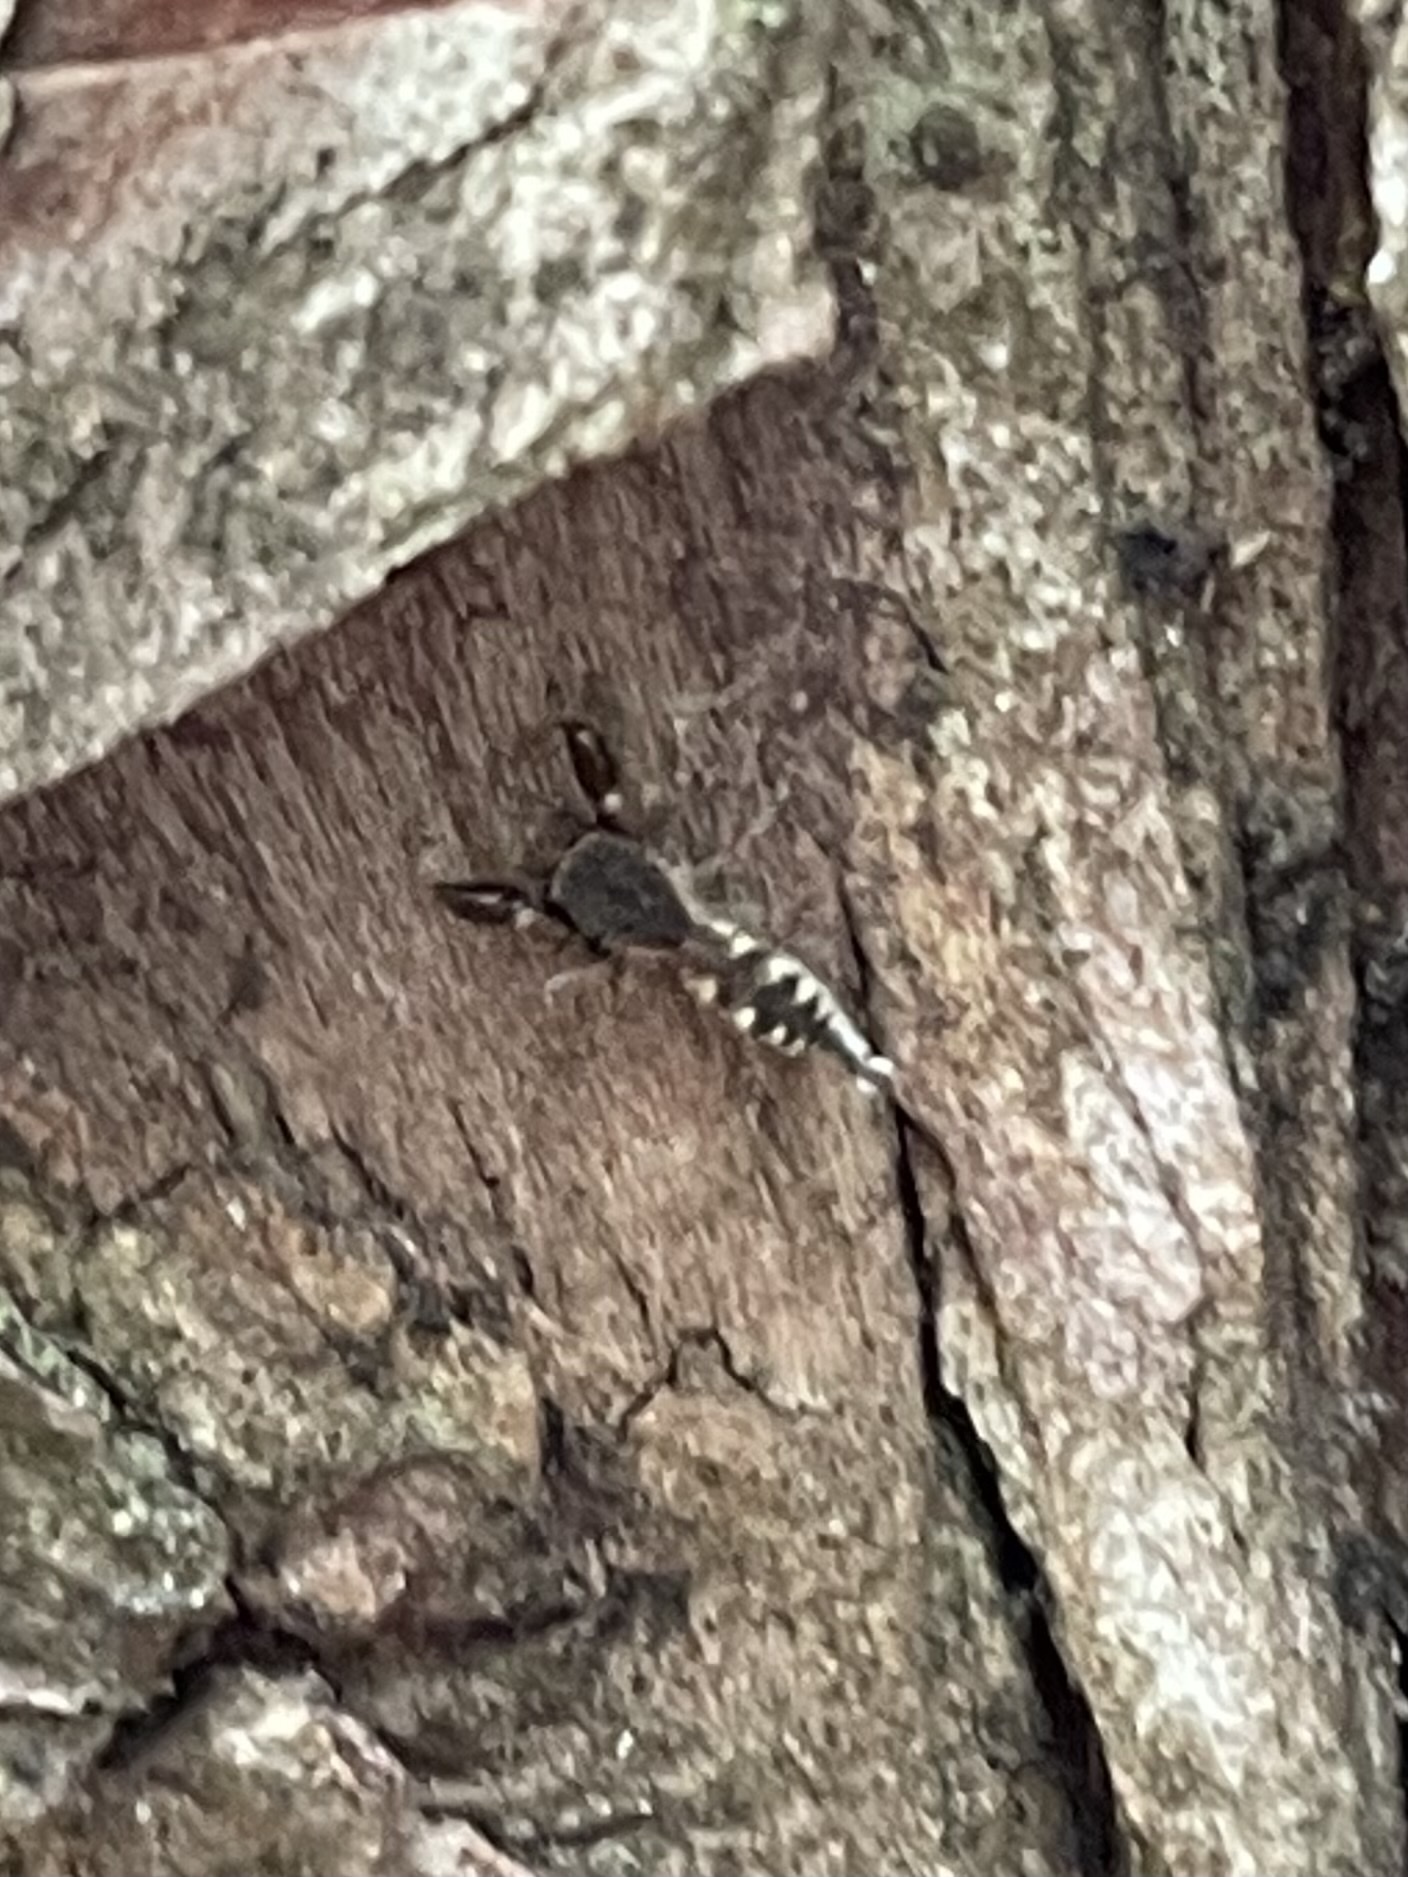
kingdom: Animalia
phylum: Arthropoda
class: Arachnida
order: Araneae
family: Salticidae
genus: Cheliferoides
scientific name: Cheliferoides segmentatus
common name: Jumping spiders
